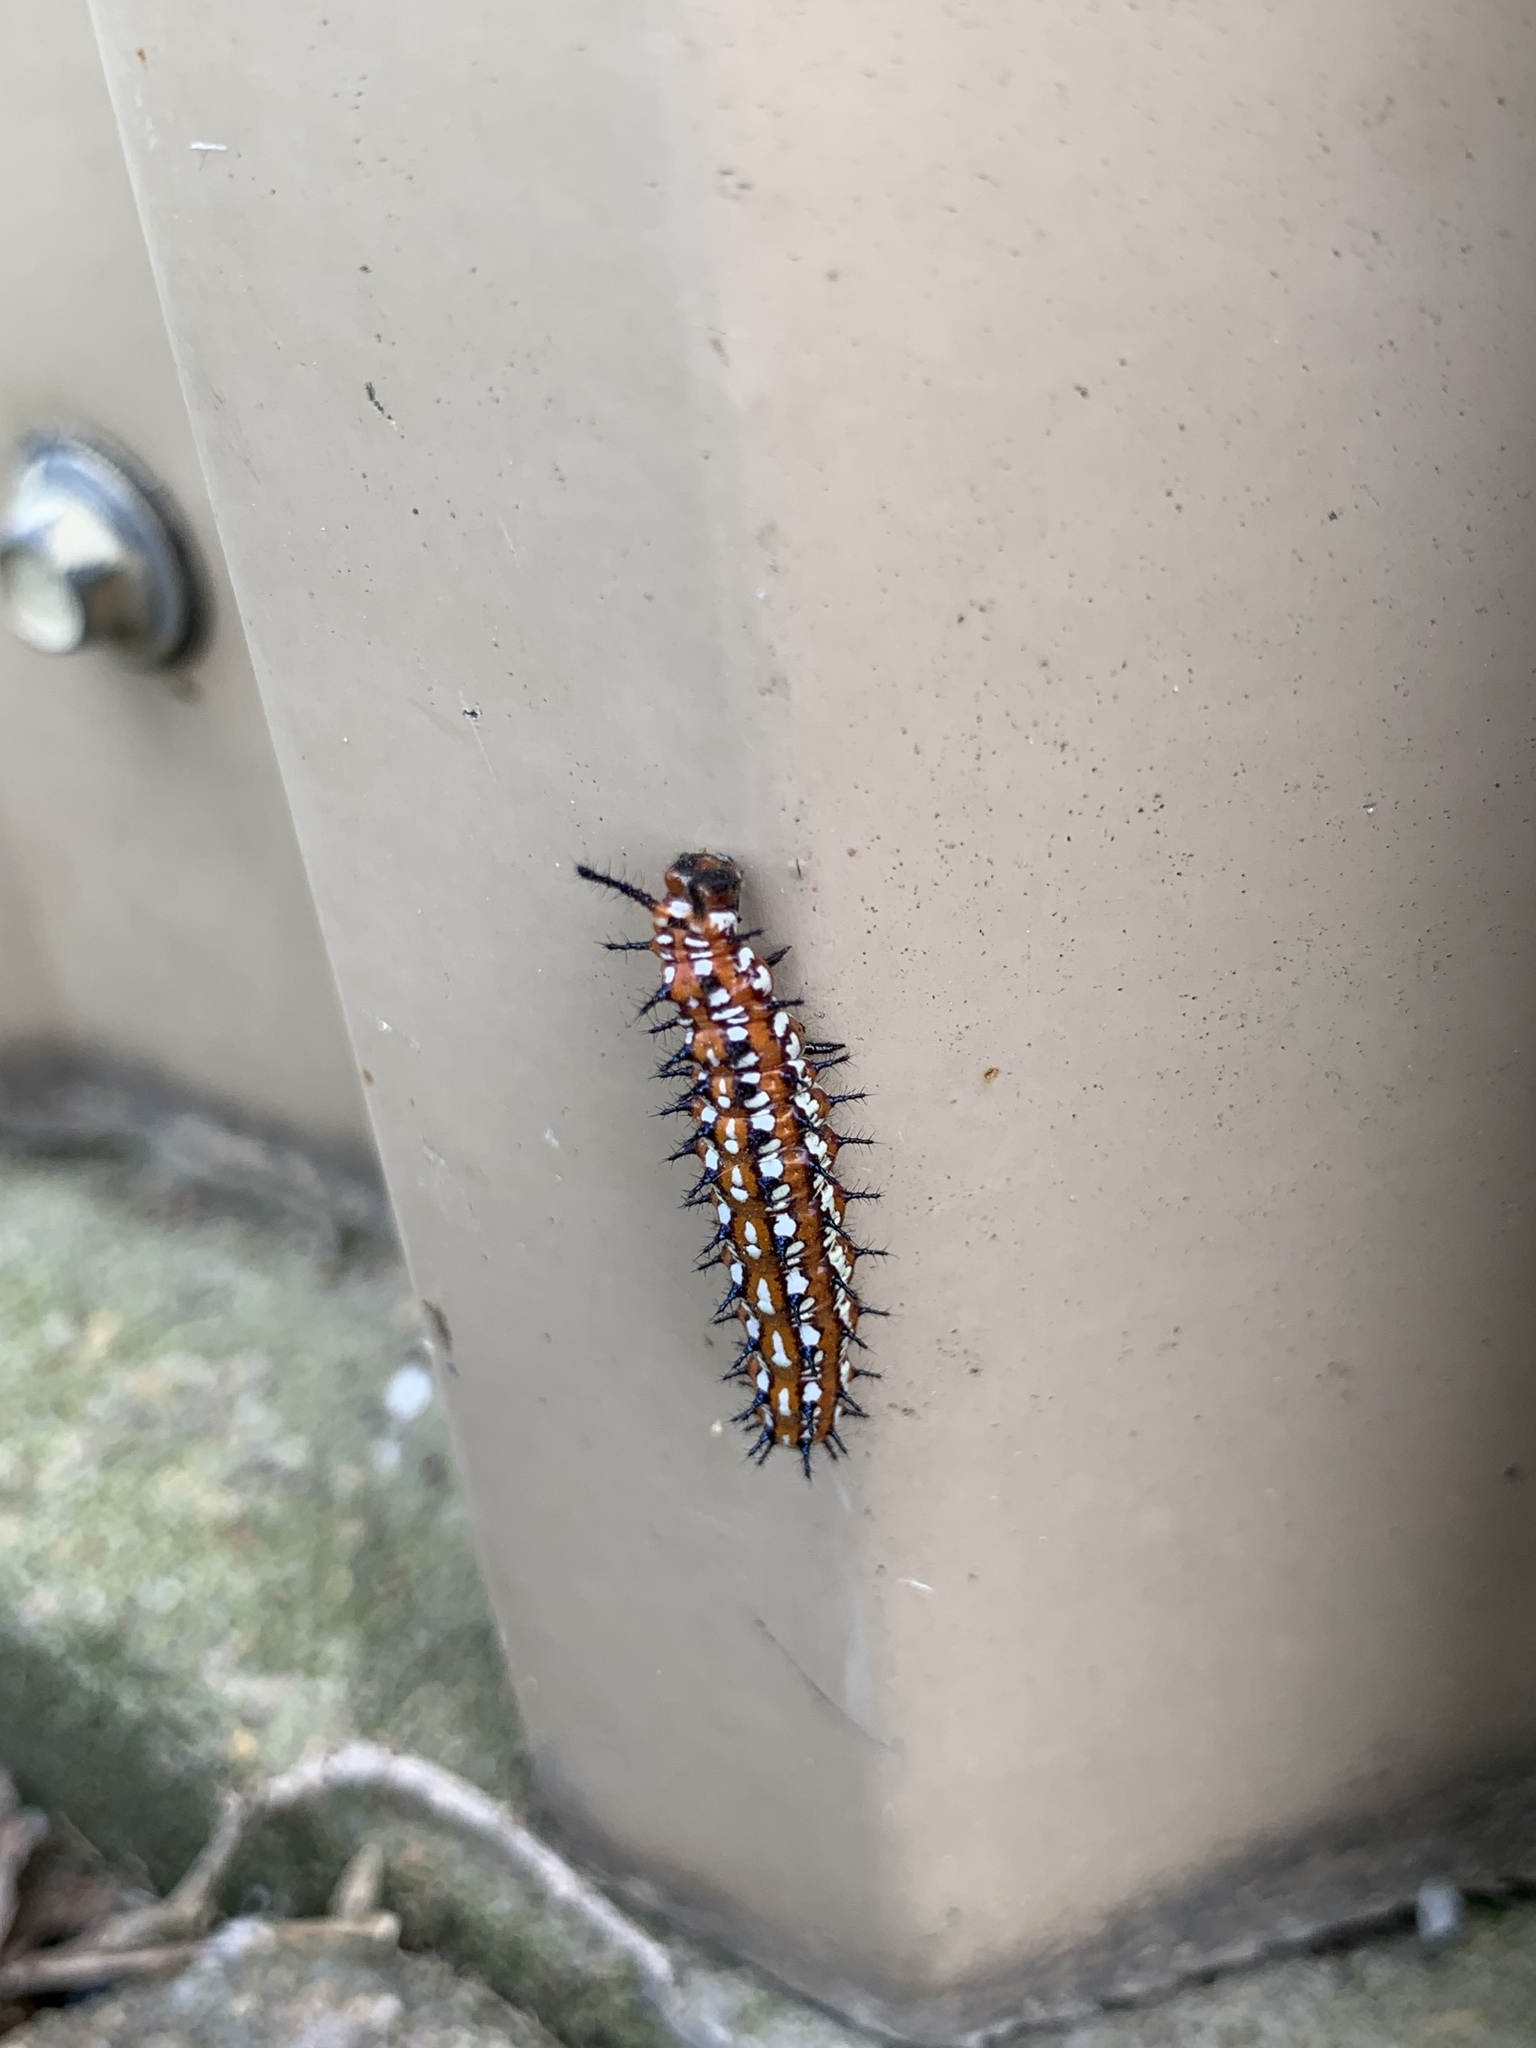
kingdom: Animalia
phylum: Arthropoda
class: Insecta
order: Lepidoptera
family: Nymphalidae
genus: Euptoieta
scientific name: Euptoieta claudia
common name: Variegated fritillary
